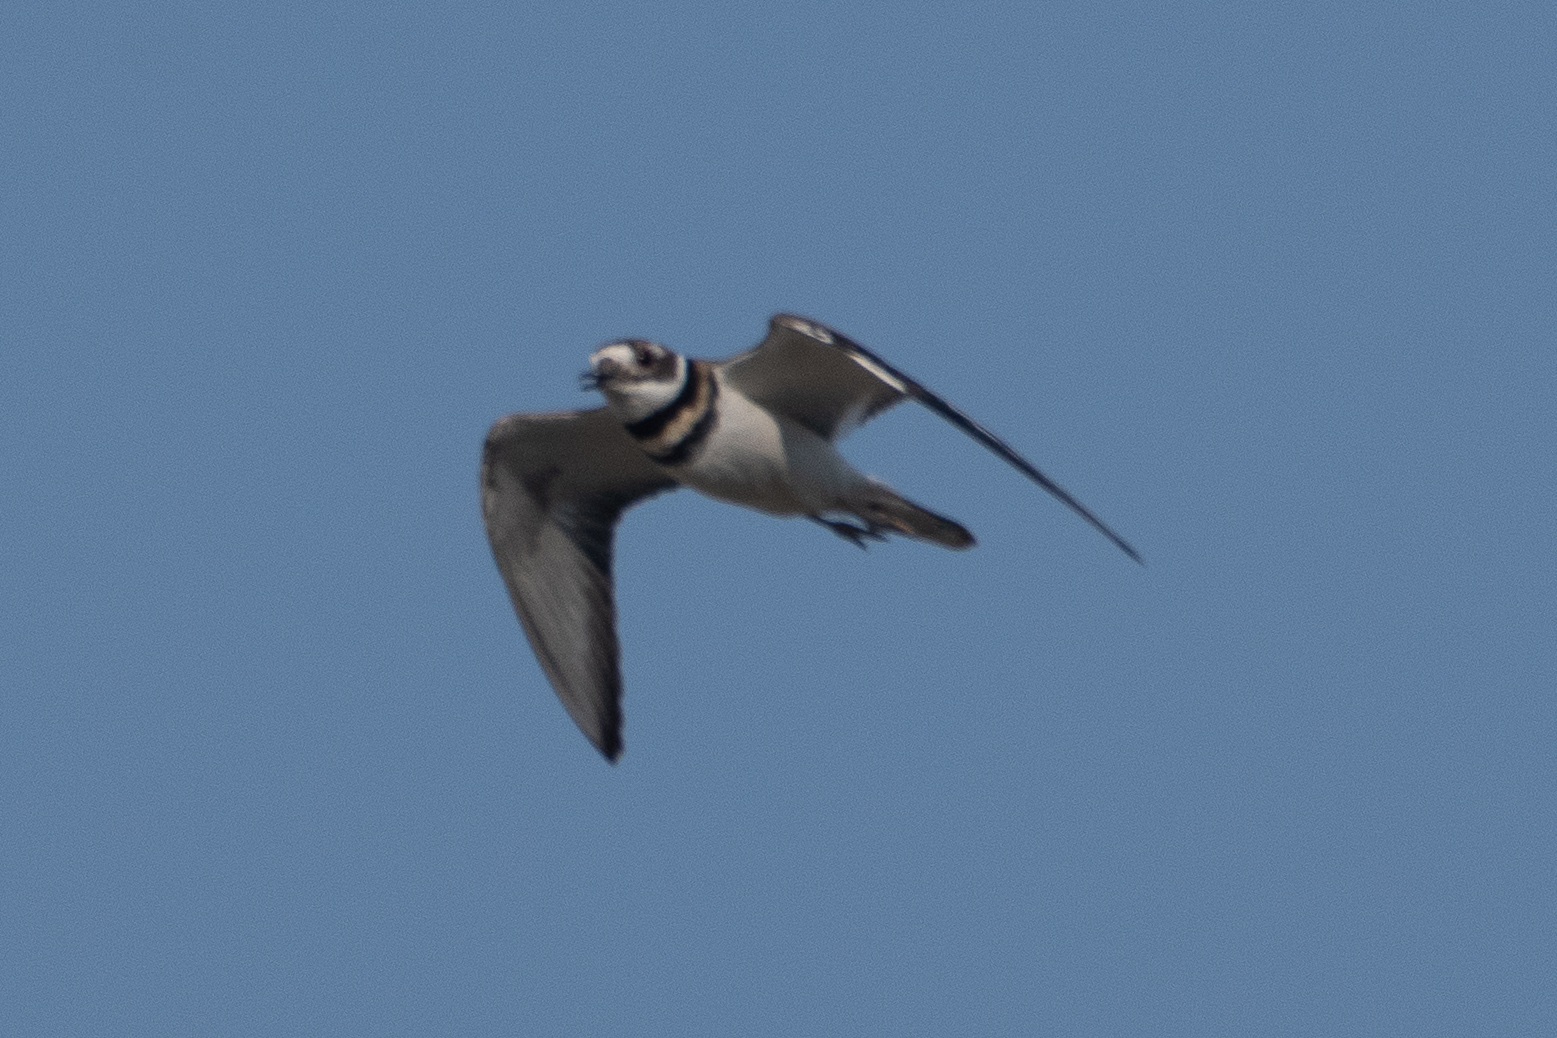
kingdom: Animalia
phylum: Chordata
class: Aves
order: Charadriiformes
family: Charadriidae
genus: Charadrius
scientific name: Charadrius vociferus
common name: Killdeer
